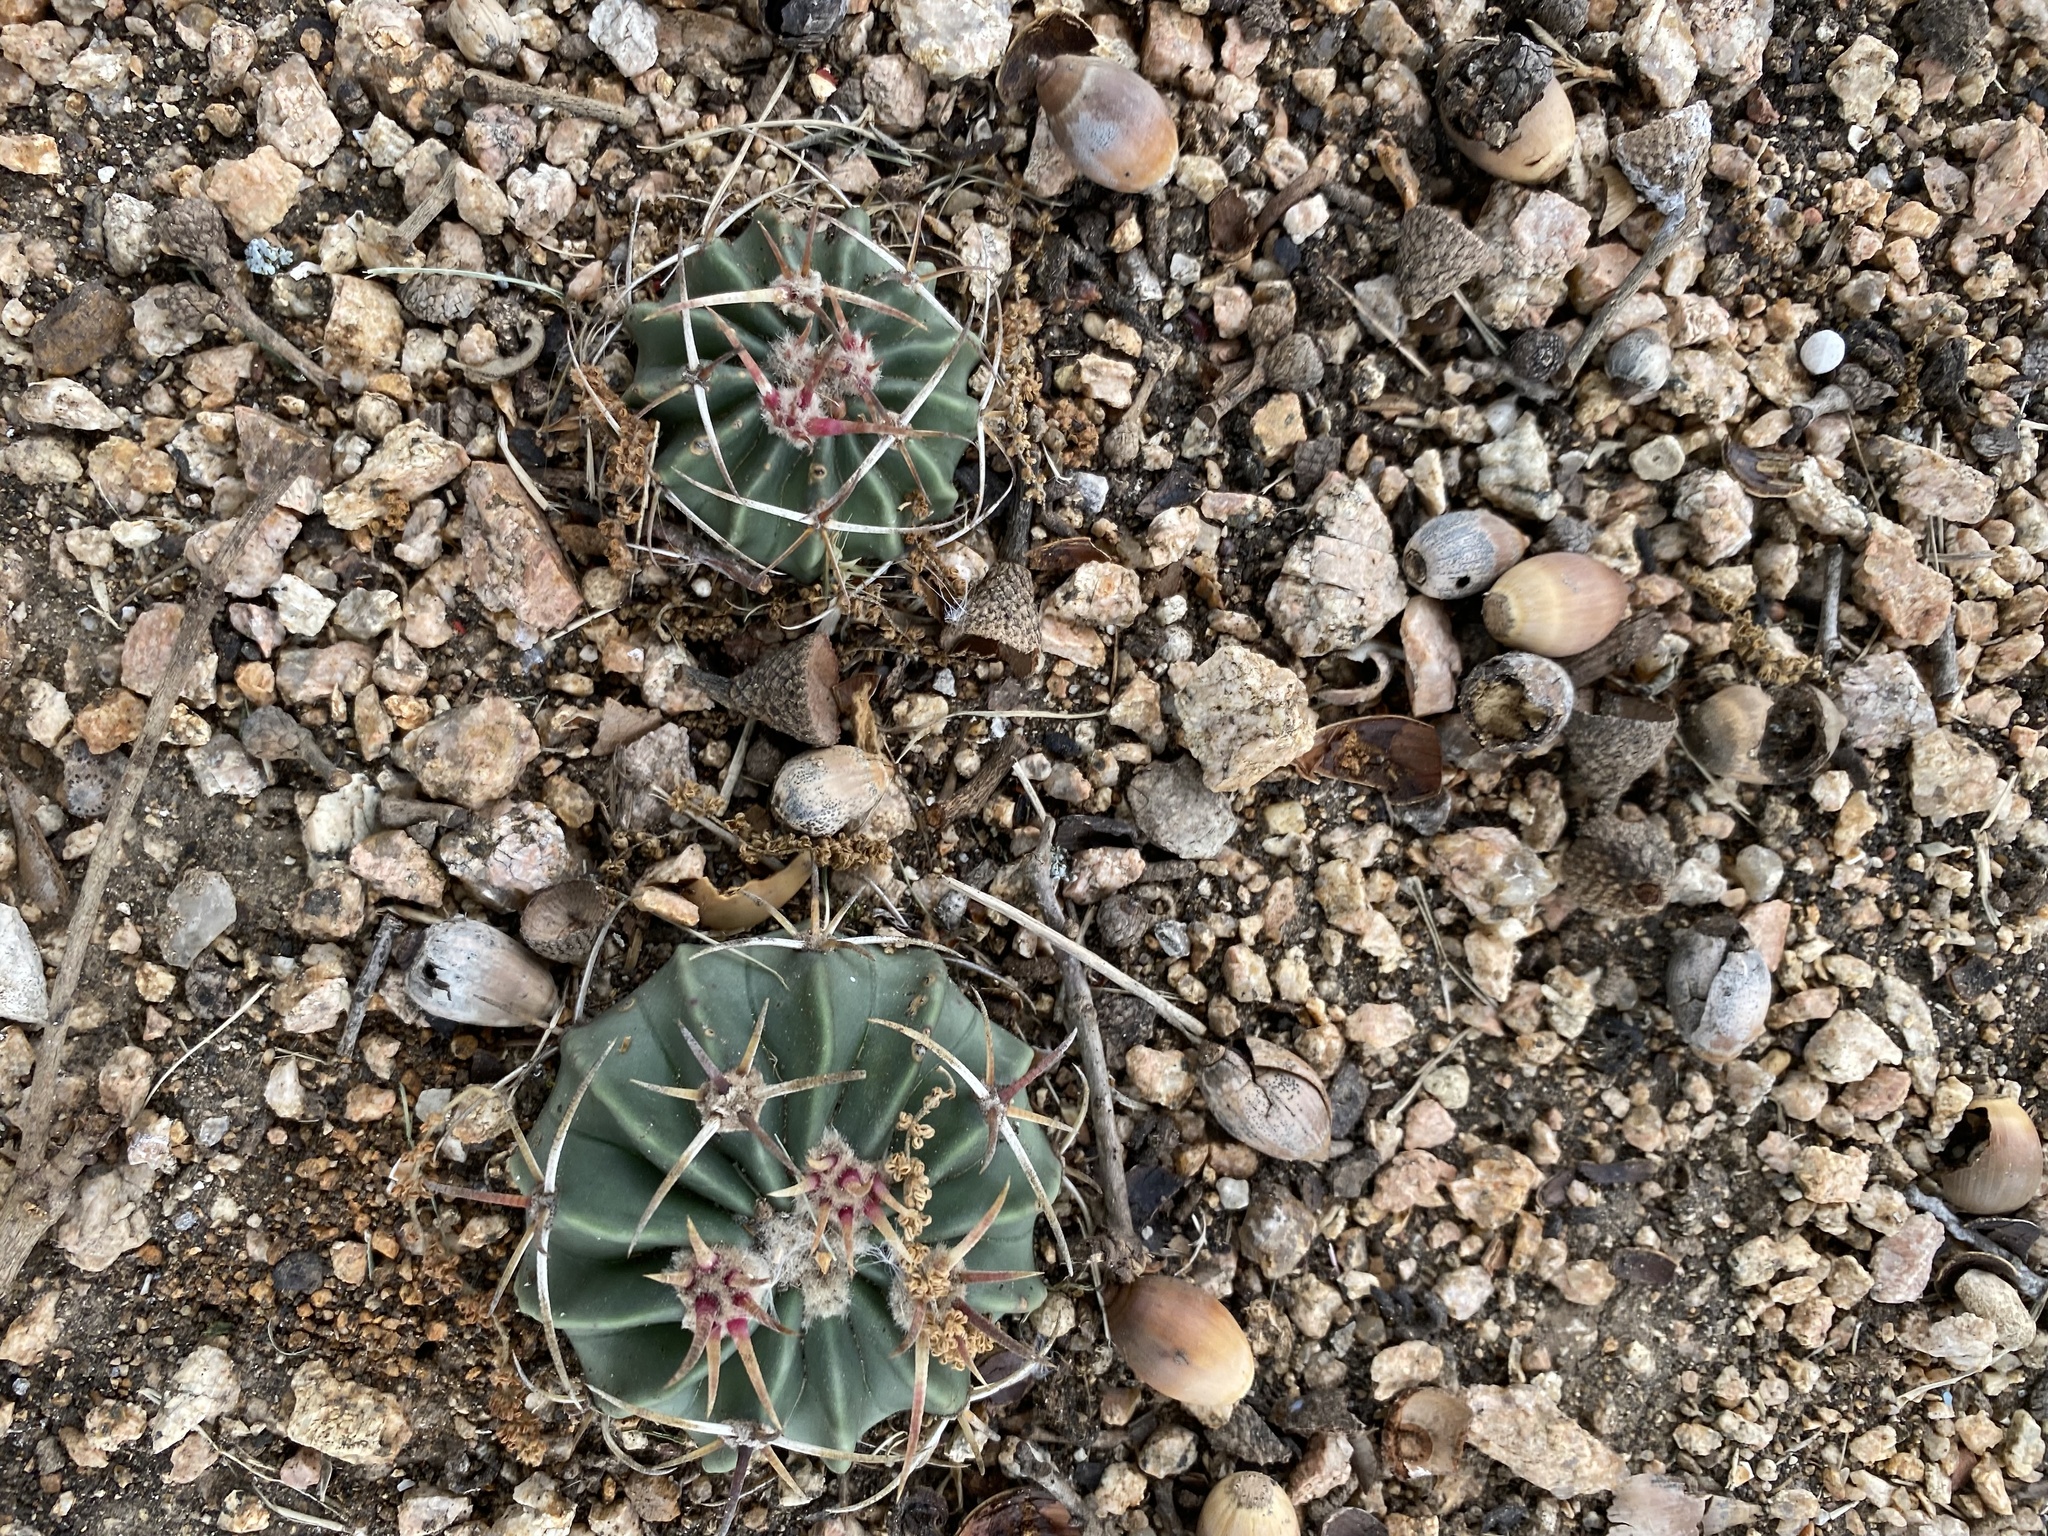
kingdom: Plantae
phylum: Tracheophyta
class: Magnoliopsida
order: Caryophyllales
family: Cactaceae
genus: Echinocactus
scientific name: Echinocactus texensis
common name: Devil's pincushion
